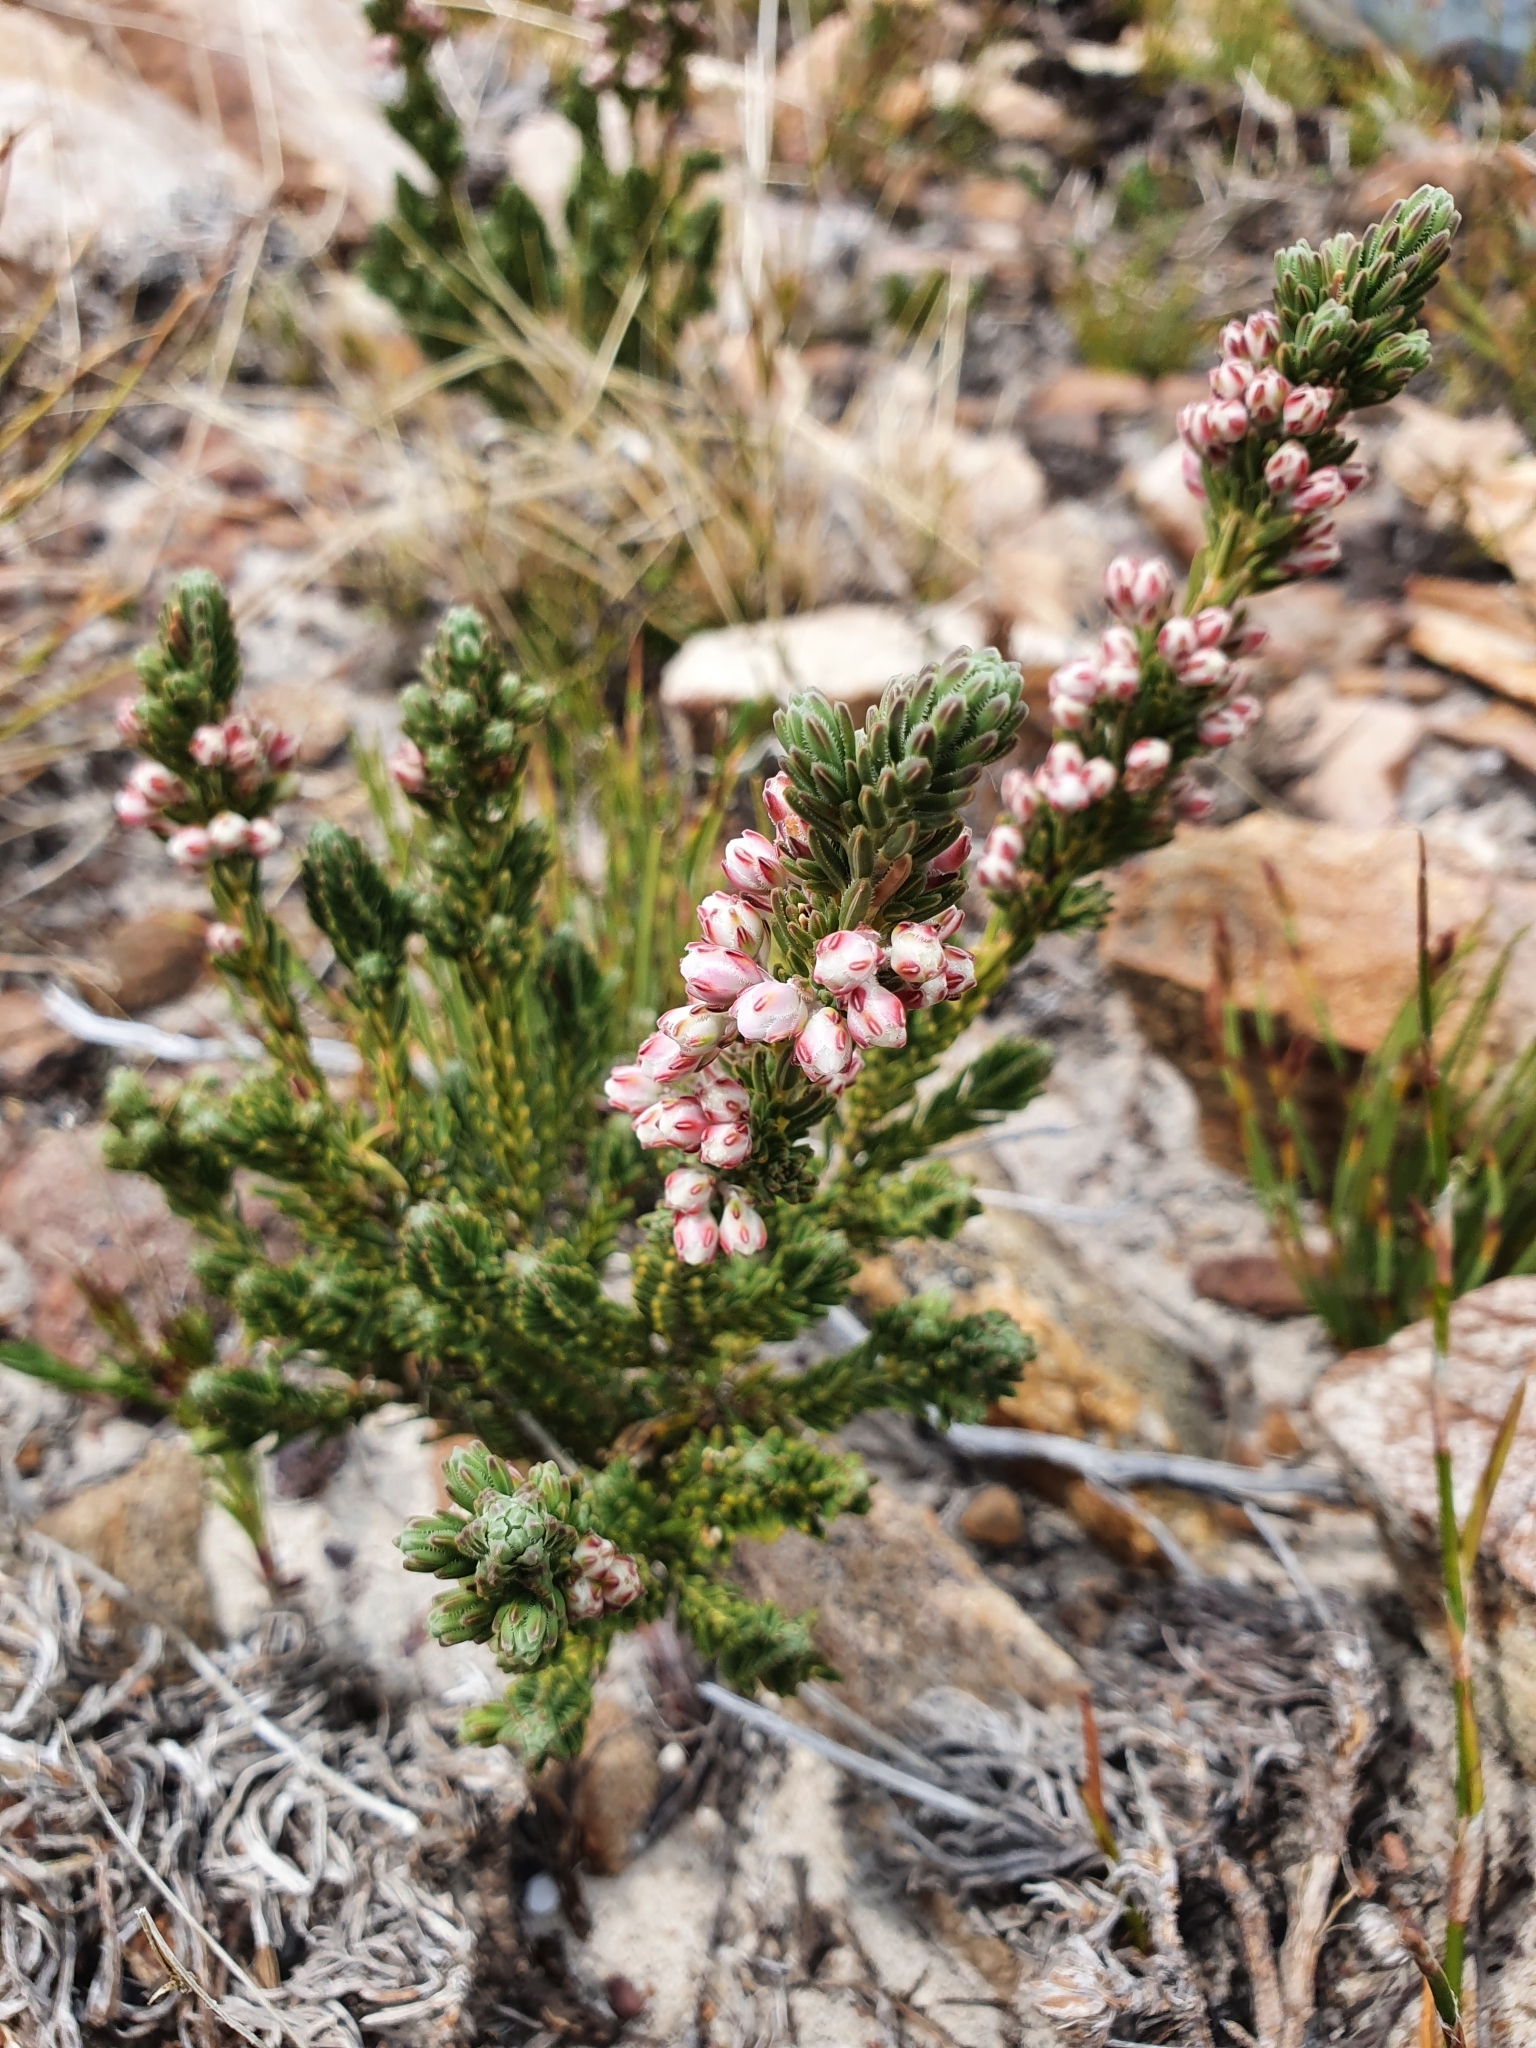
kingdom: Plantae
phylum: Tracheophyta
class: Magnoliopsida
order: Ericales
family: Ericaceae
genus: Erica
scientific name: Erica goatcheriana
